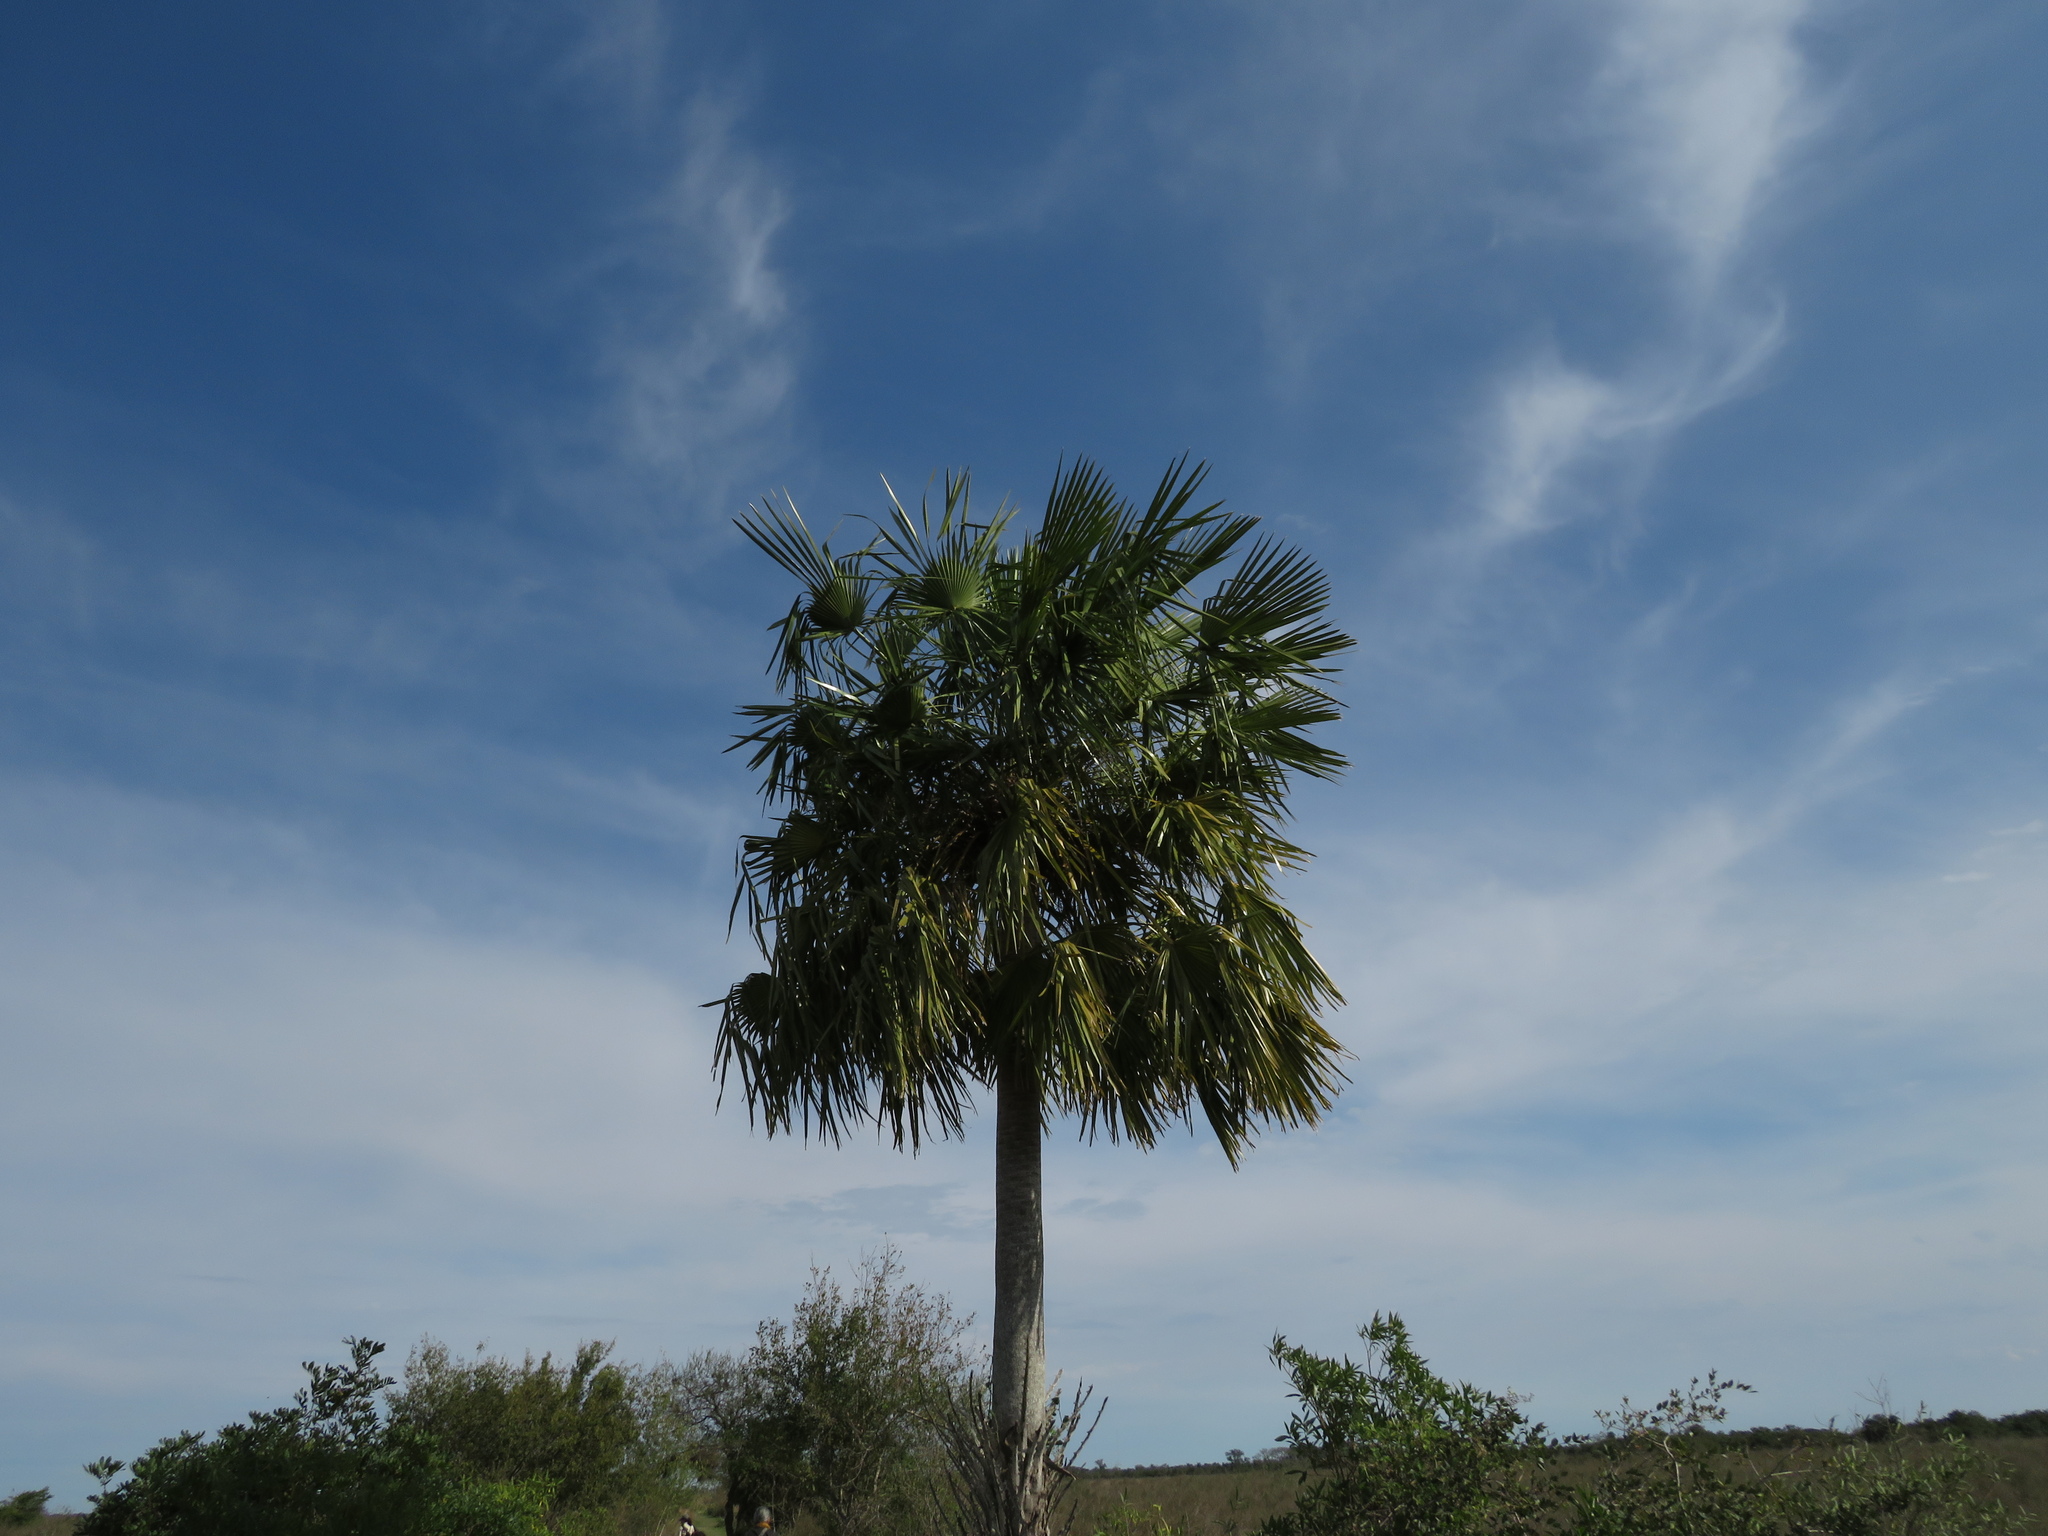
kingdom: Plantae
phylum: Tracheophyta
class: Liliopsida
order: Arecales
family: Arecaceae
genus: Copernicia
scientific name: Copernicia alba
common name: Caranday palm
